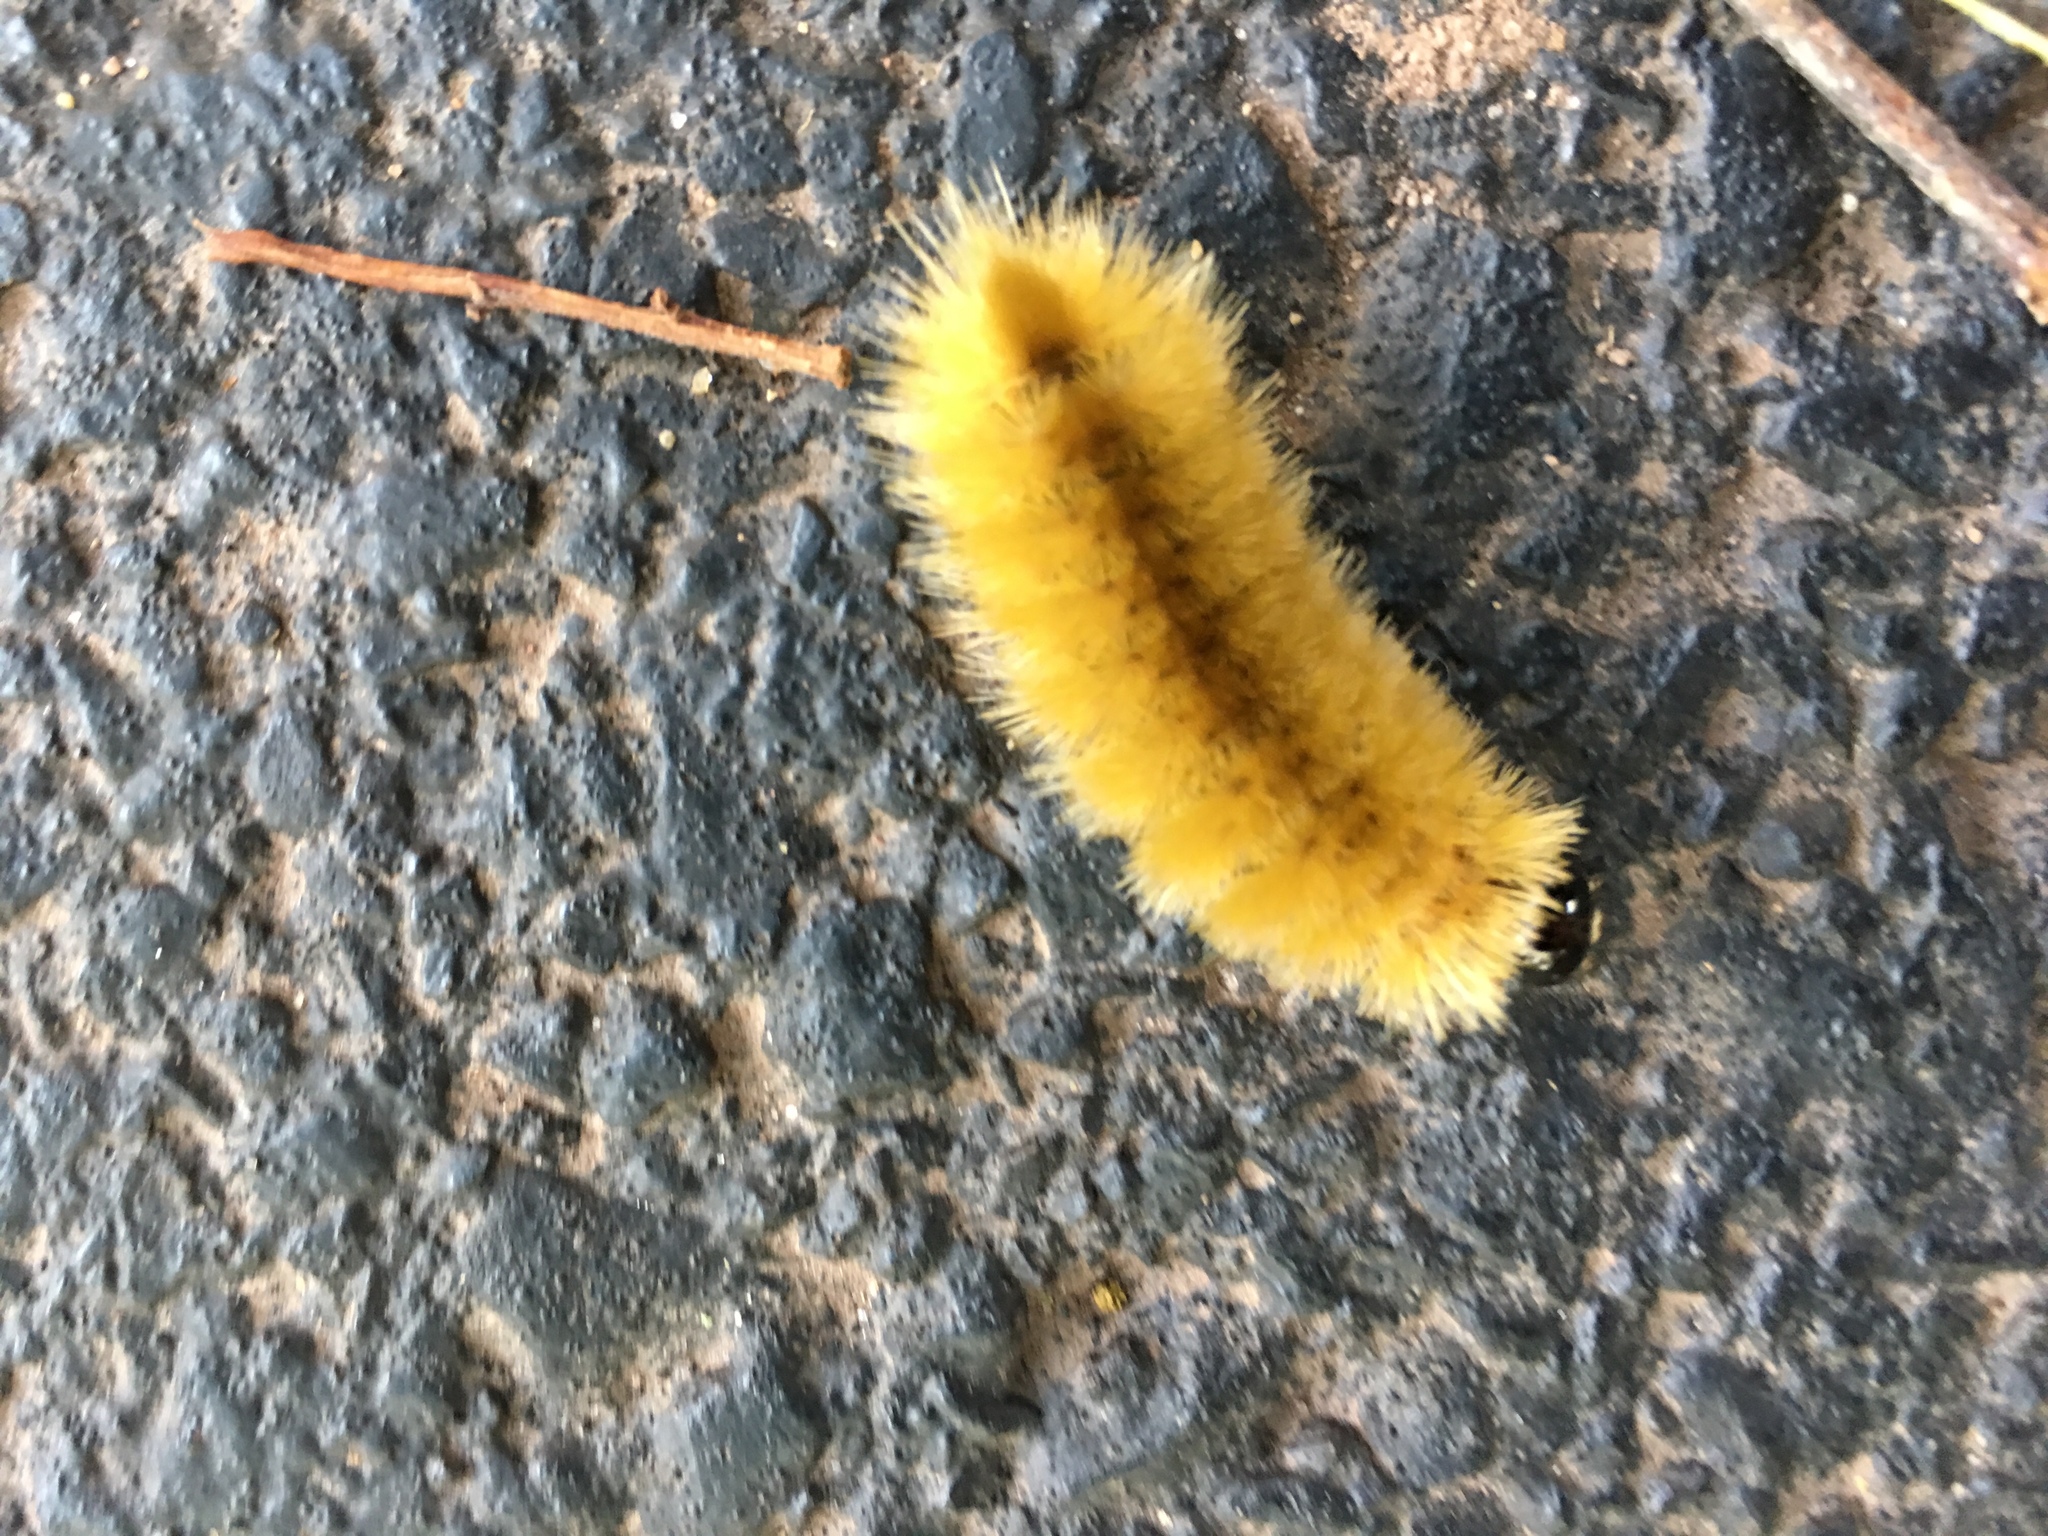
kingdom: Animalia
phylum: Arthropoda
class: Insecta
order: Lepidoptera
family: Erebidae
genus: Halysidota
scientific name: Halysidota tessellaris
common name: Banded tussock moth
